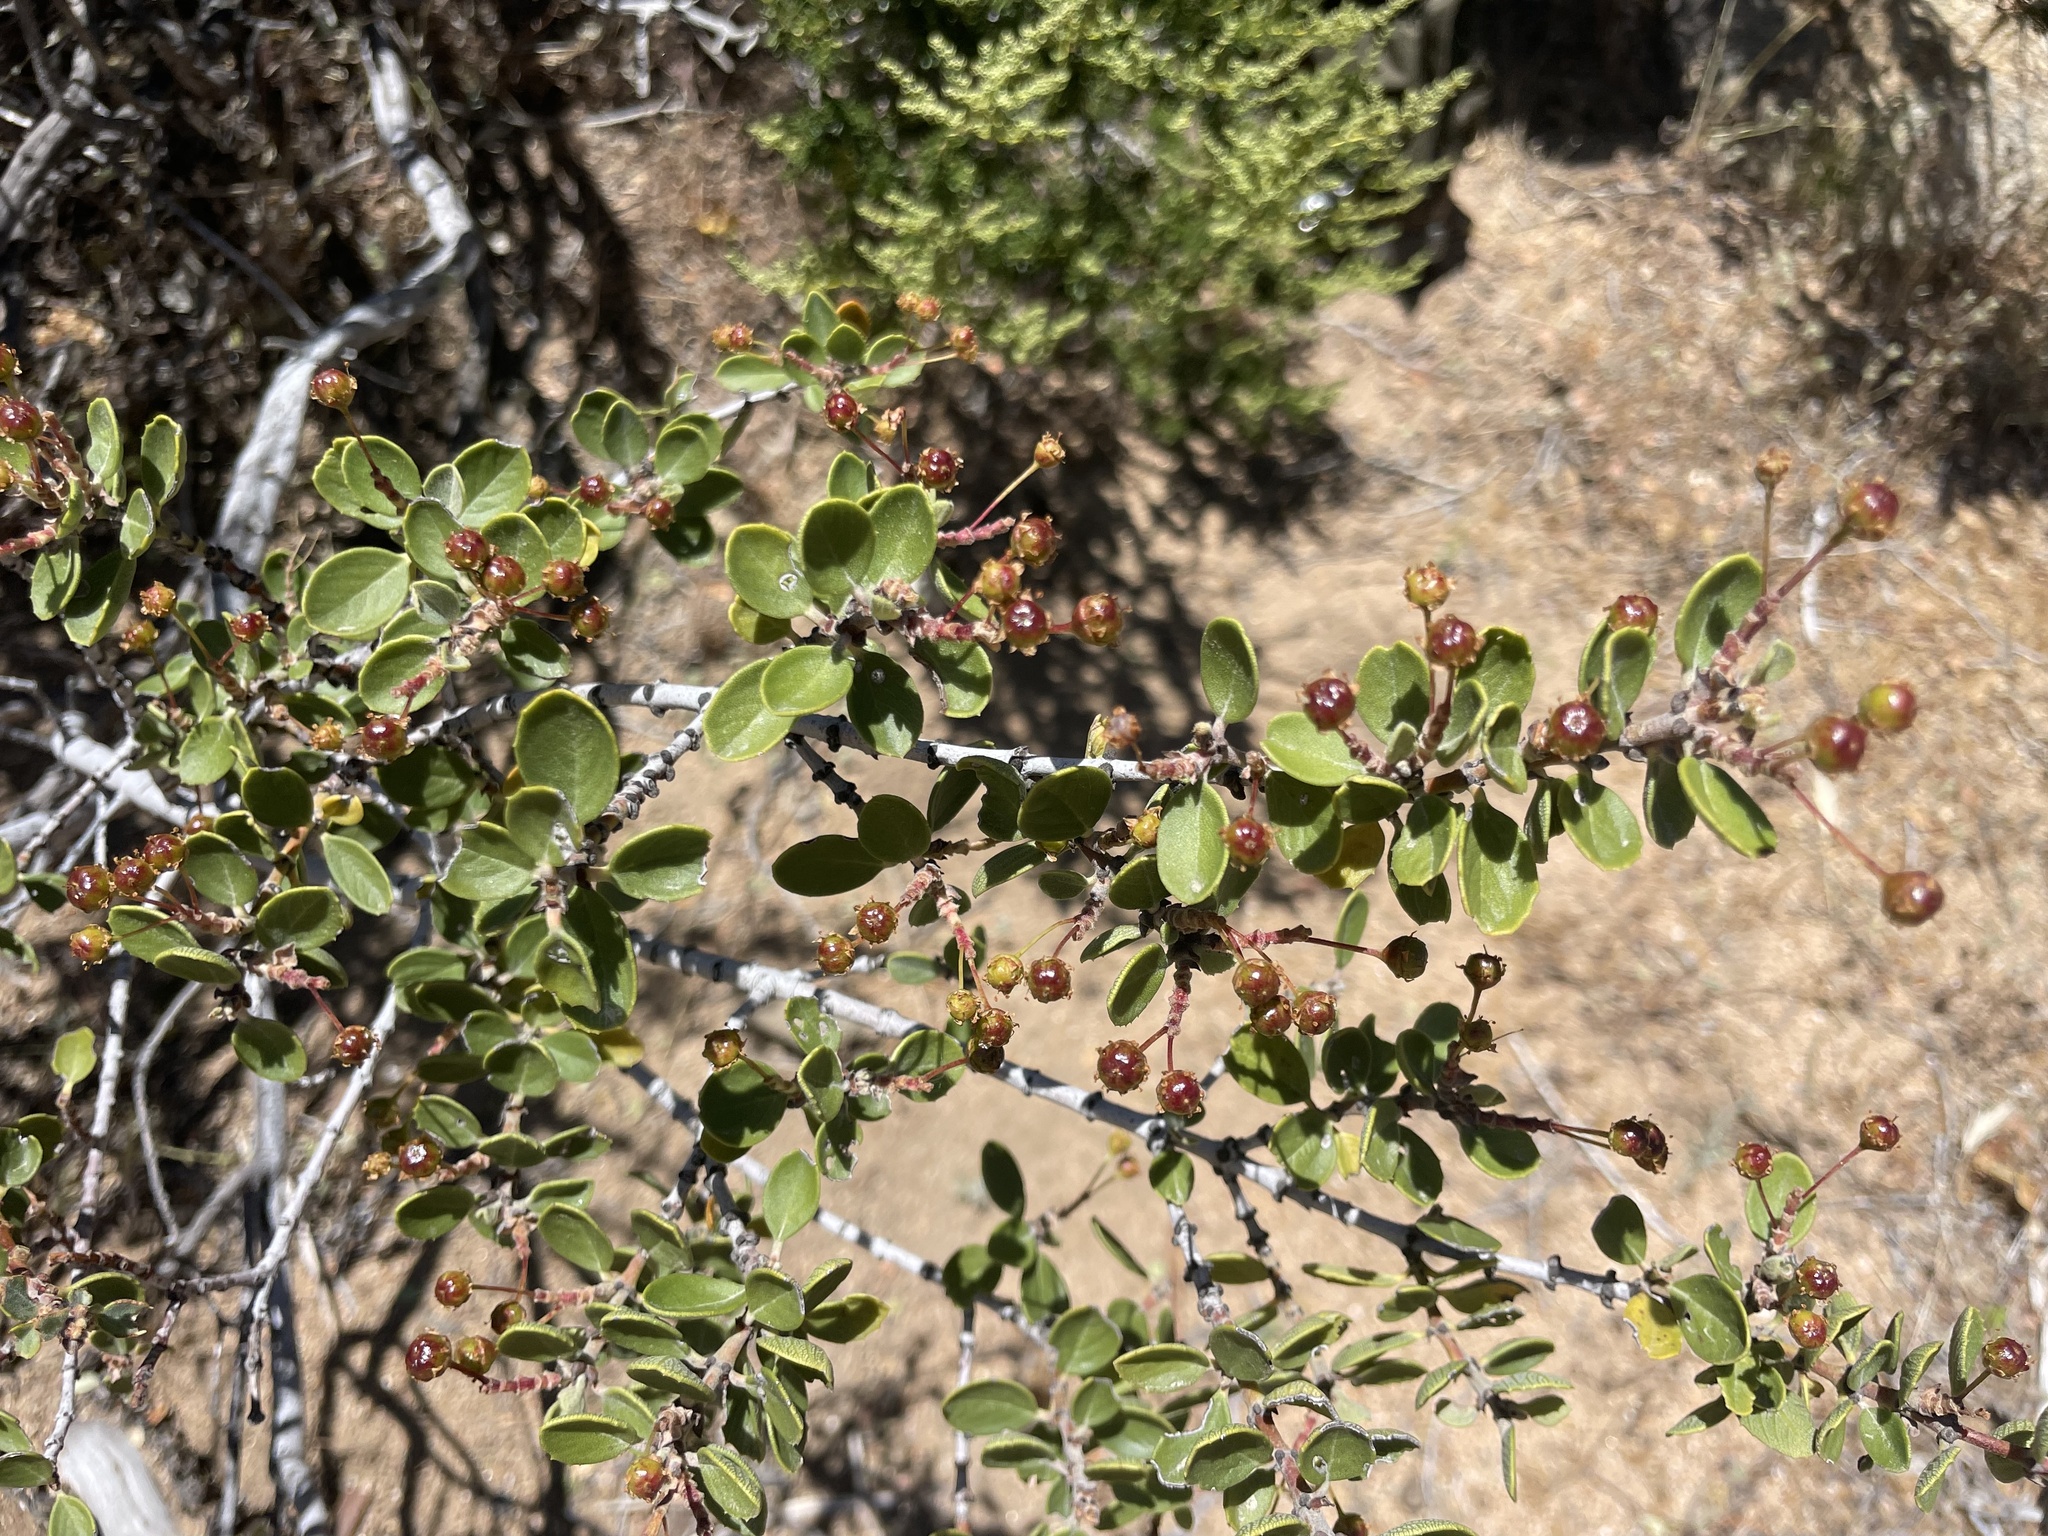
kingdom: Plantae
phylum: Tracheophyta
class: Magnoliopsida
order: Rosales
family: Rhamnaceae
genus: Ceanothus
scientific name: Ceanothus perplexans
